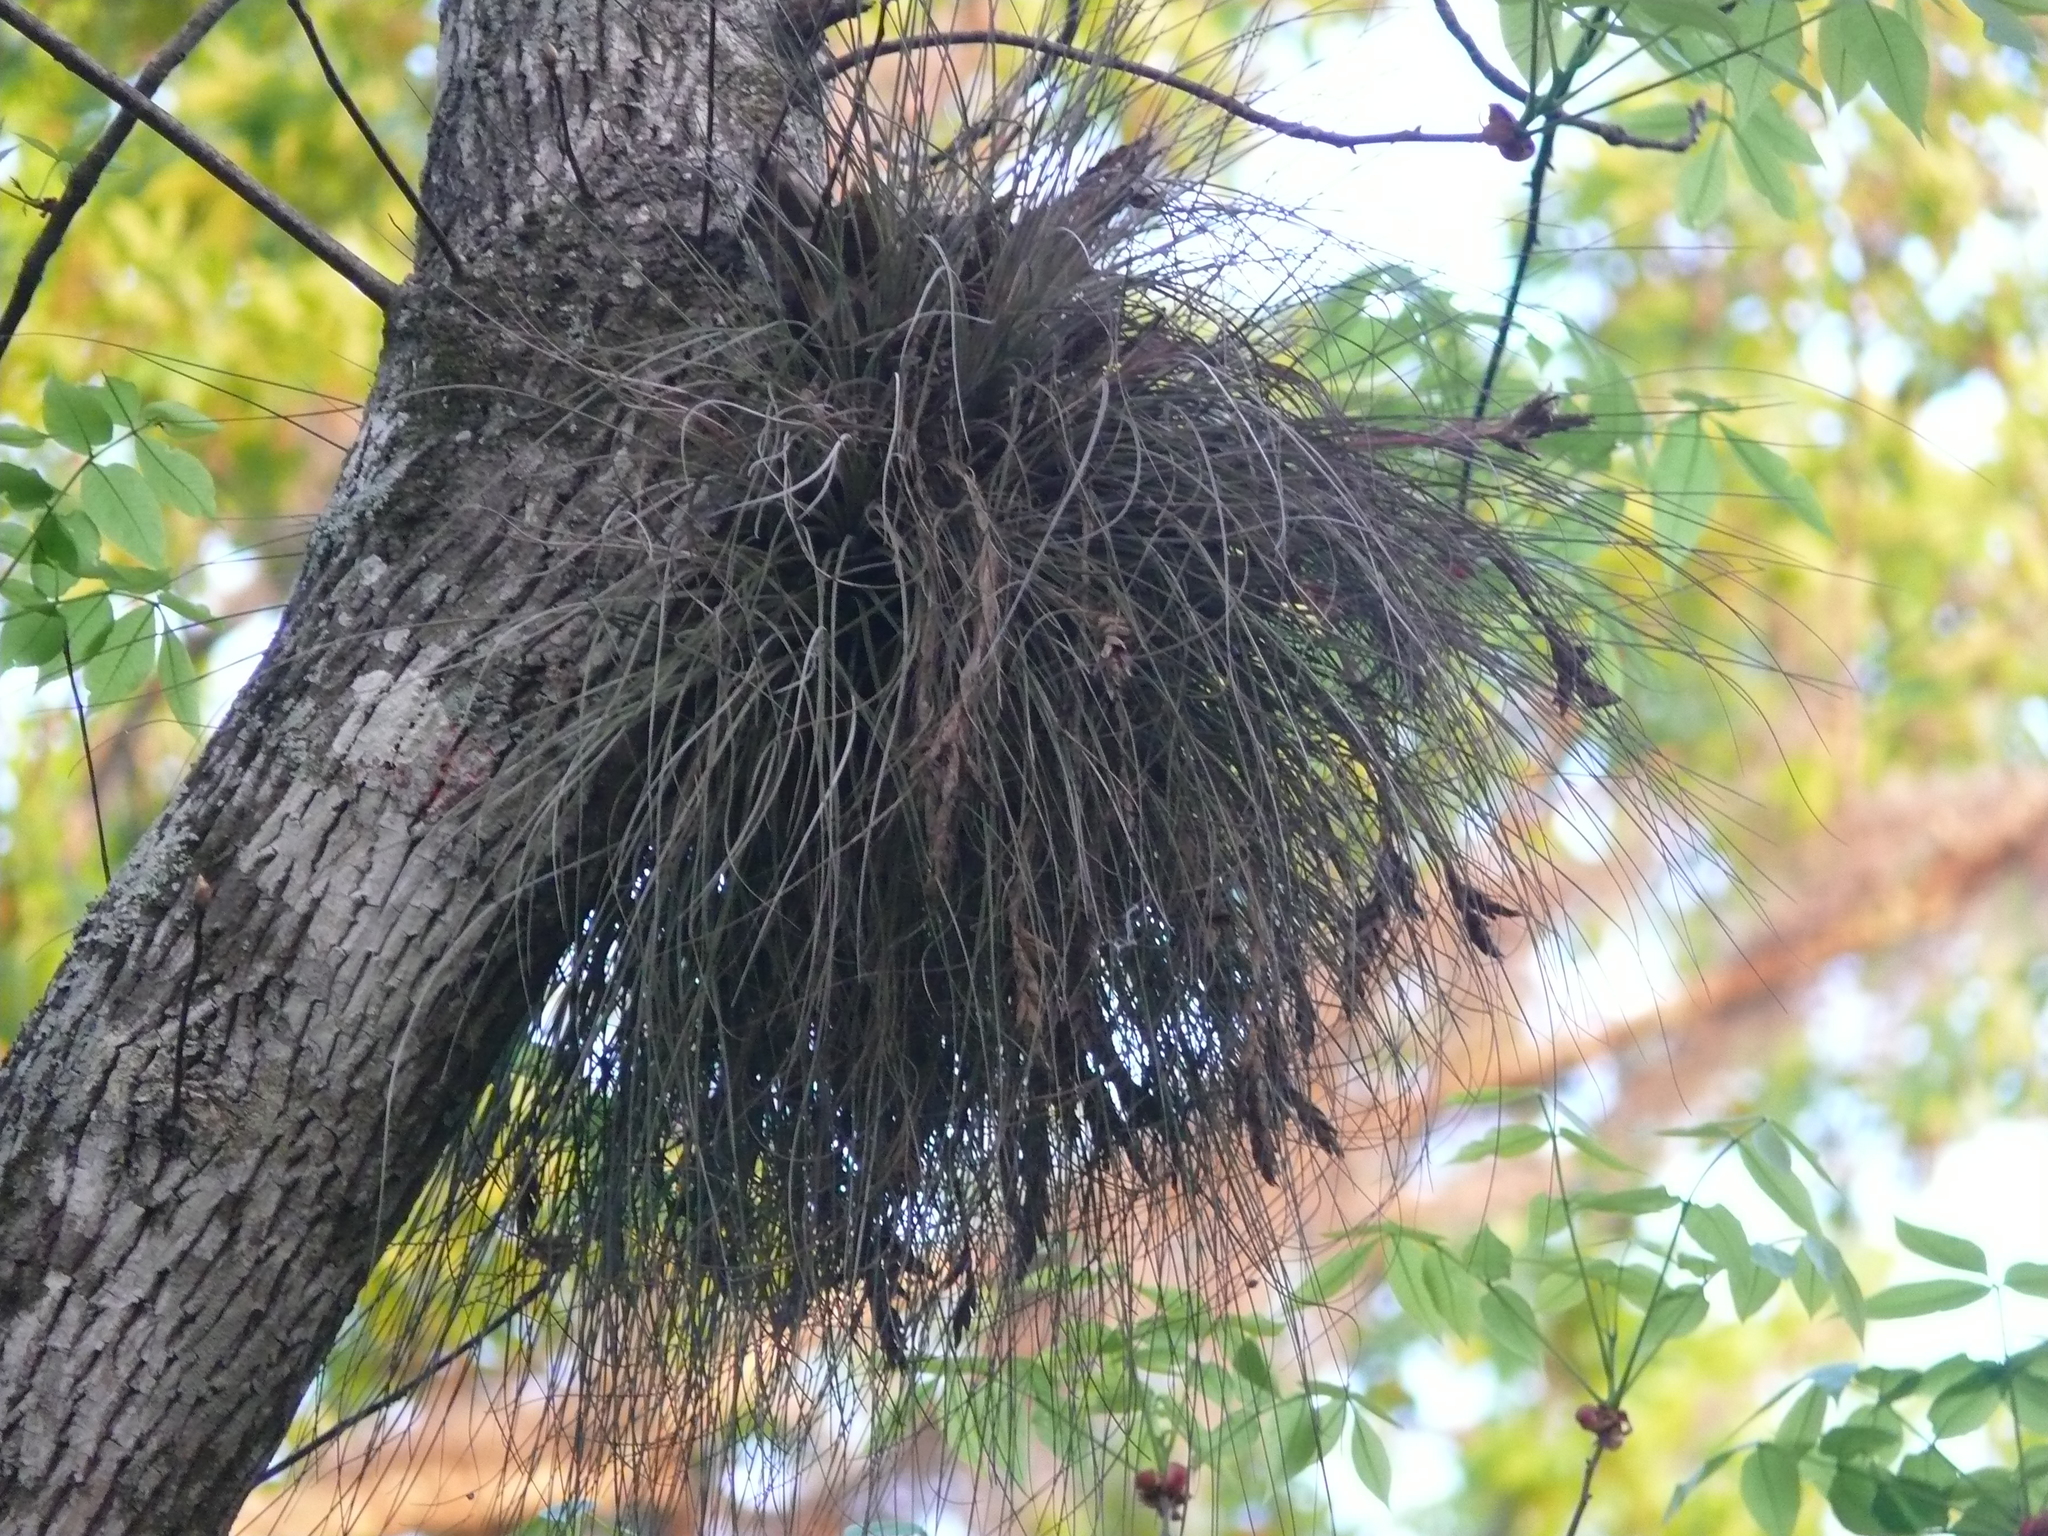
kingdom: Plantae
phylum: Tracheophyta
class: Liliopsida
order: Poales
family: Bromeliaceae
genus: Tillandsia
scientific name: Tillandsia bartramii
